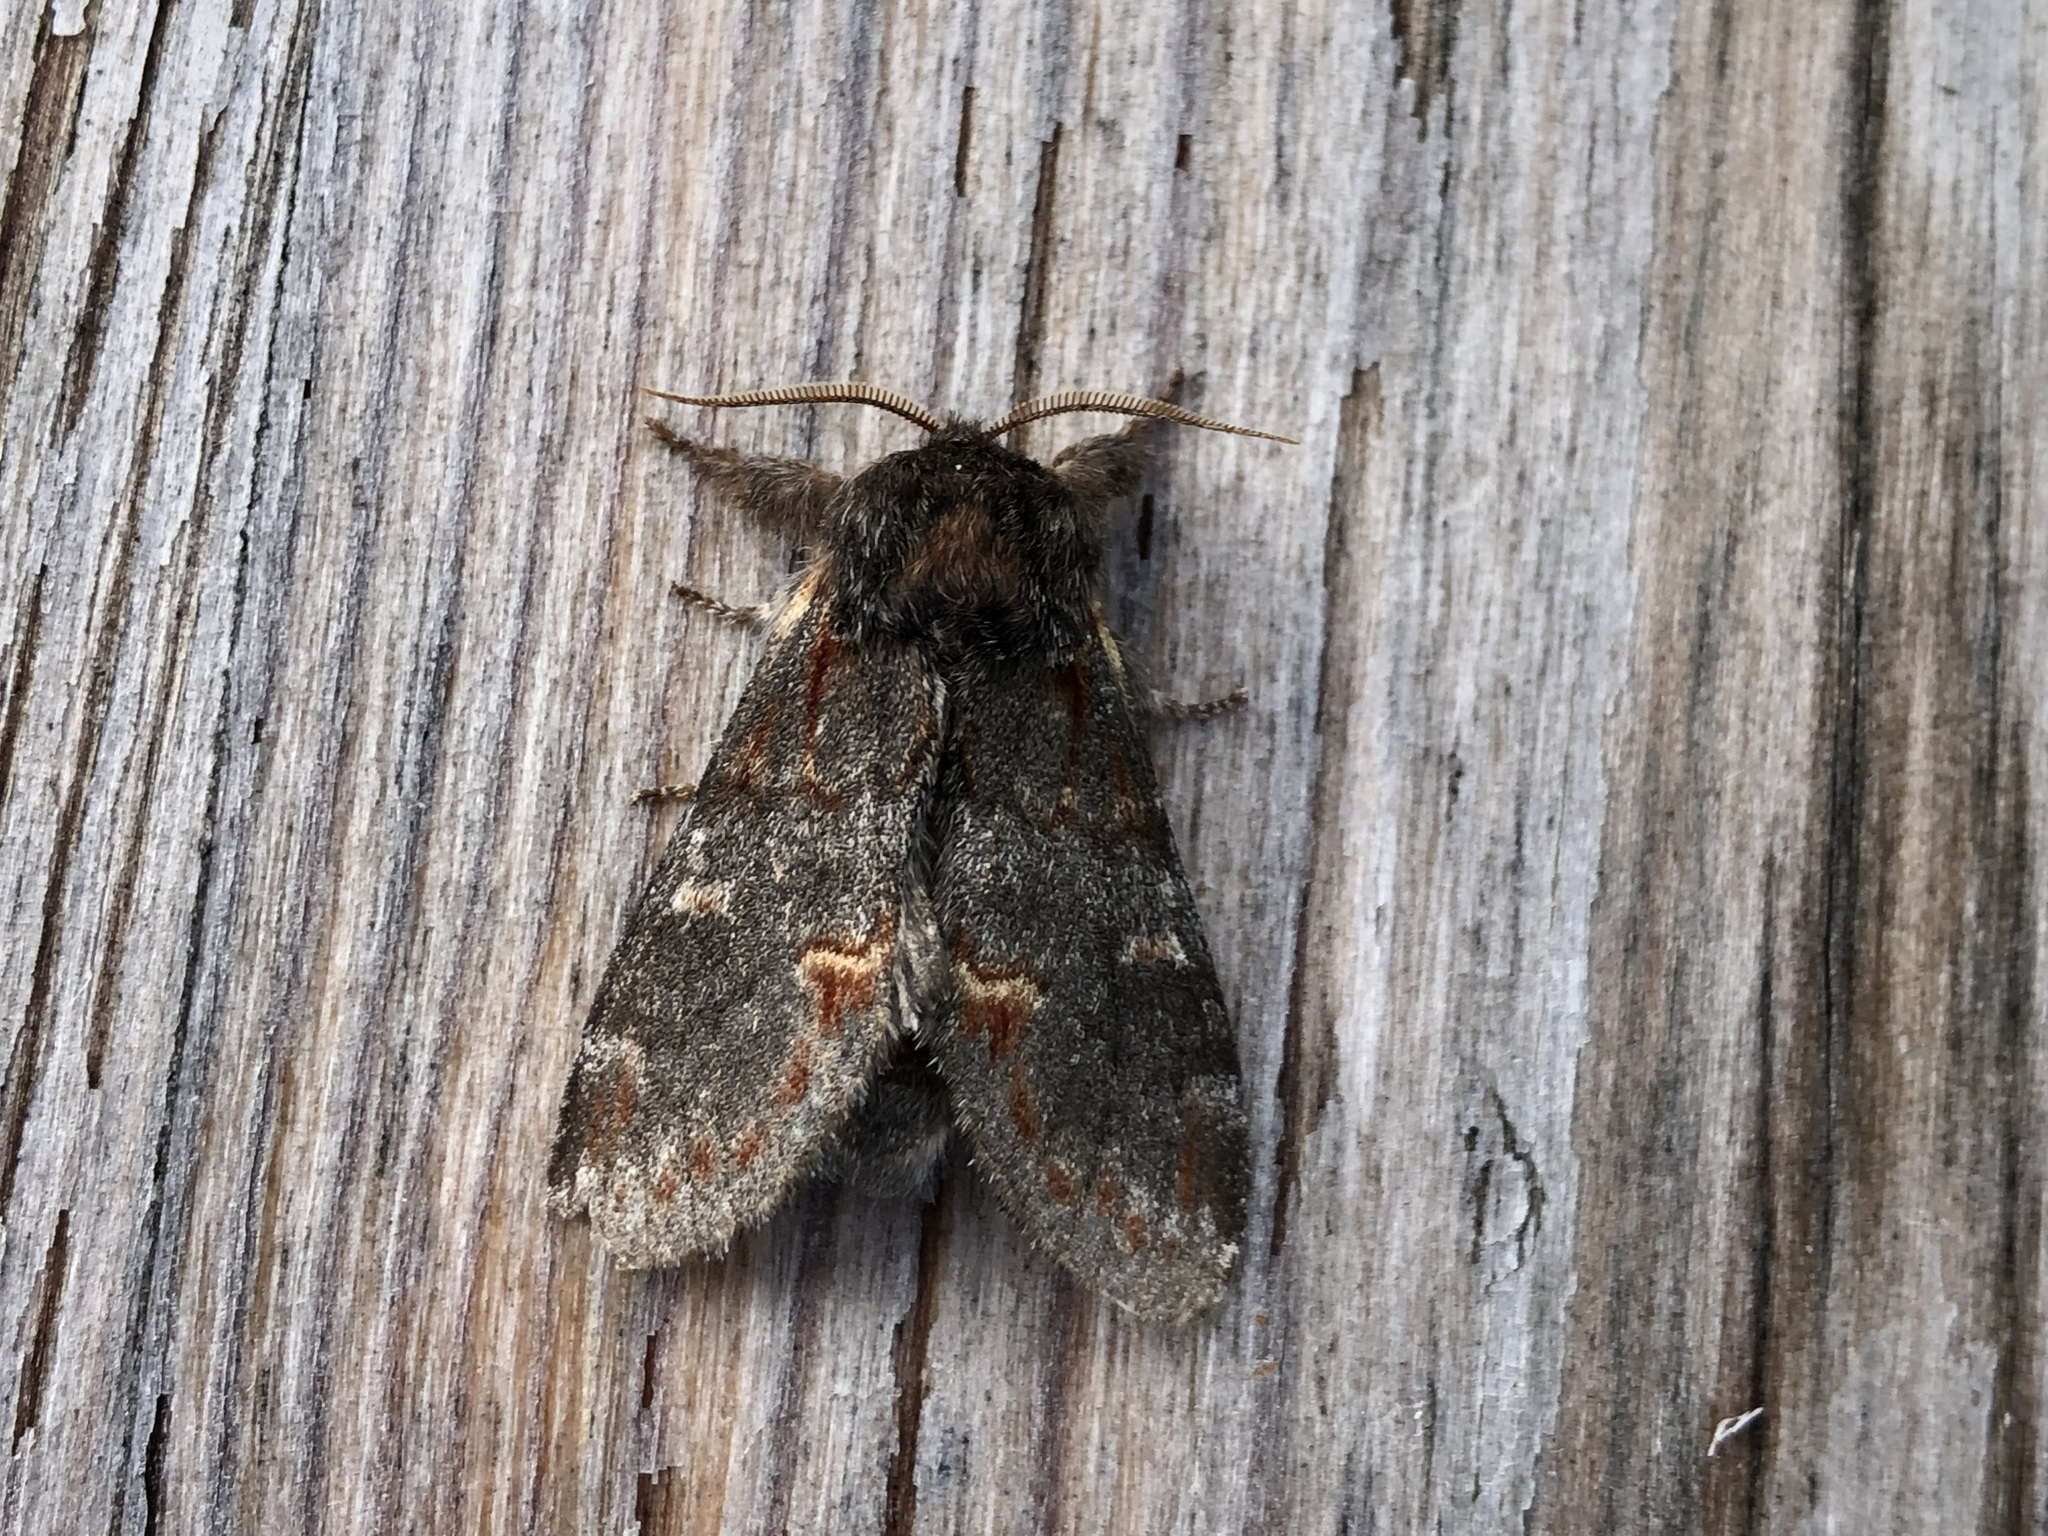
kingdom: Animalia
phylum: Arthropoda
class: Insecta
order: Lepidoptera
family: Notodontidae
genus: Notodonta
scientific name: Notodonta dromedarius
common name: Iron prominent
